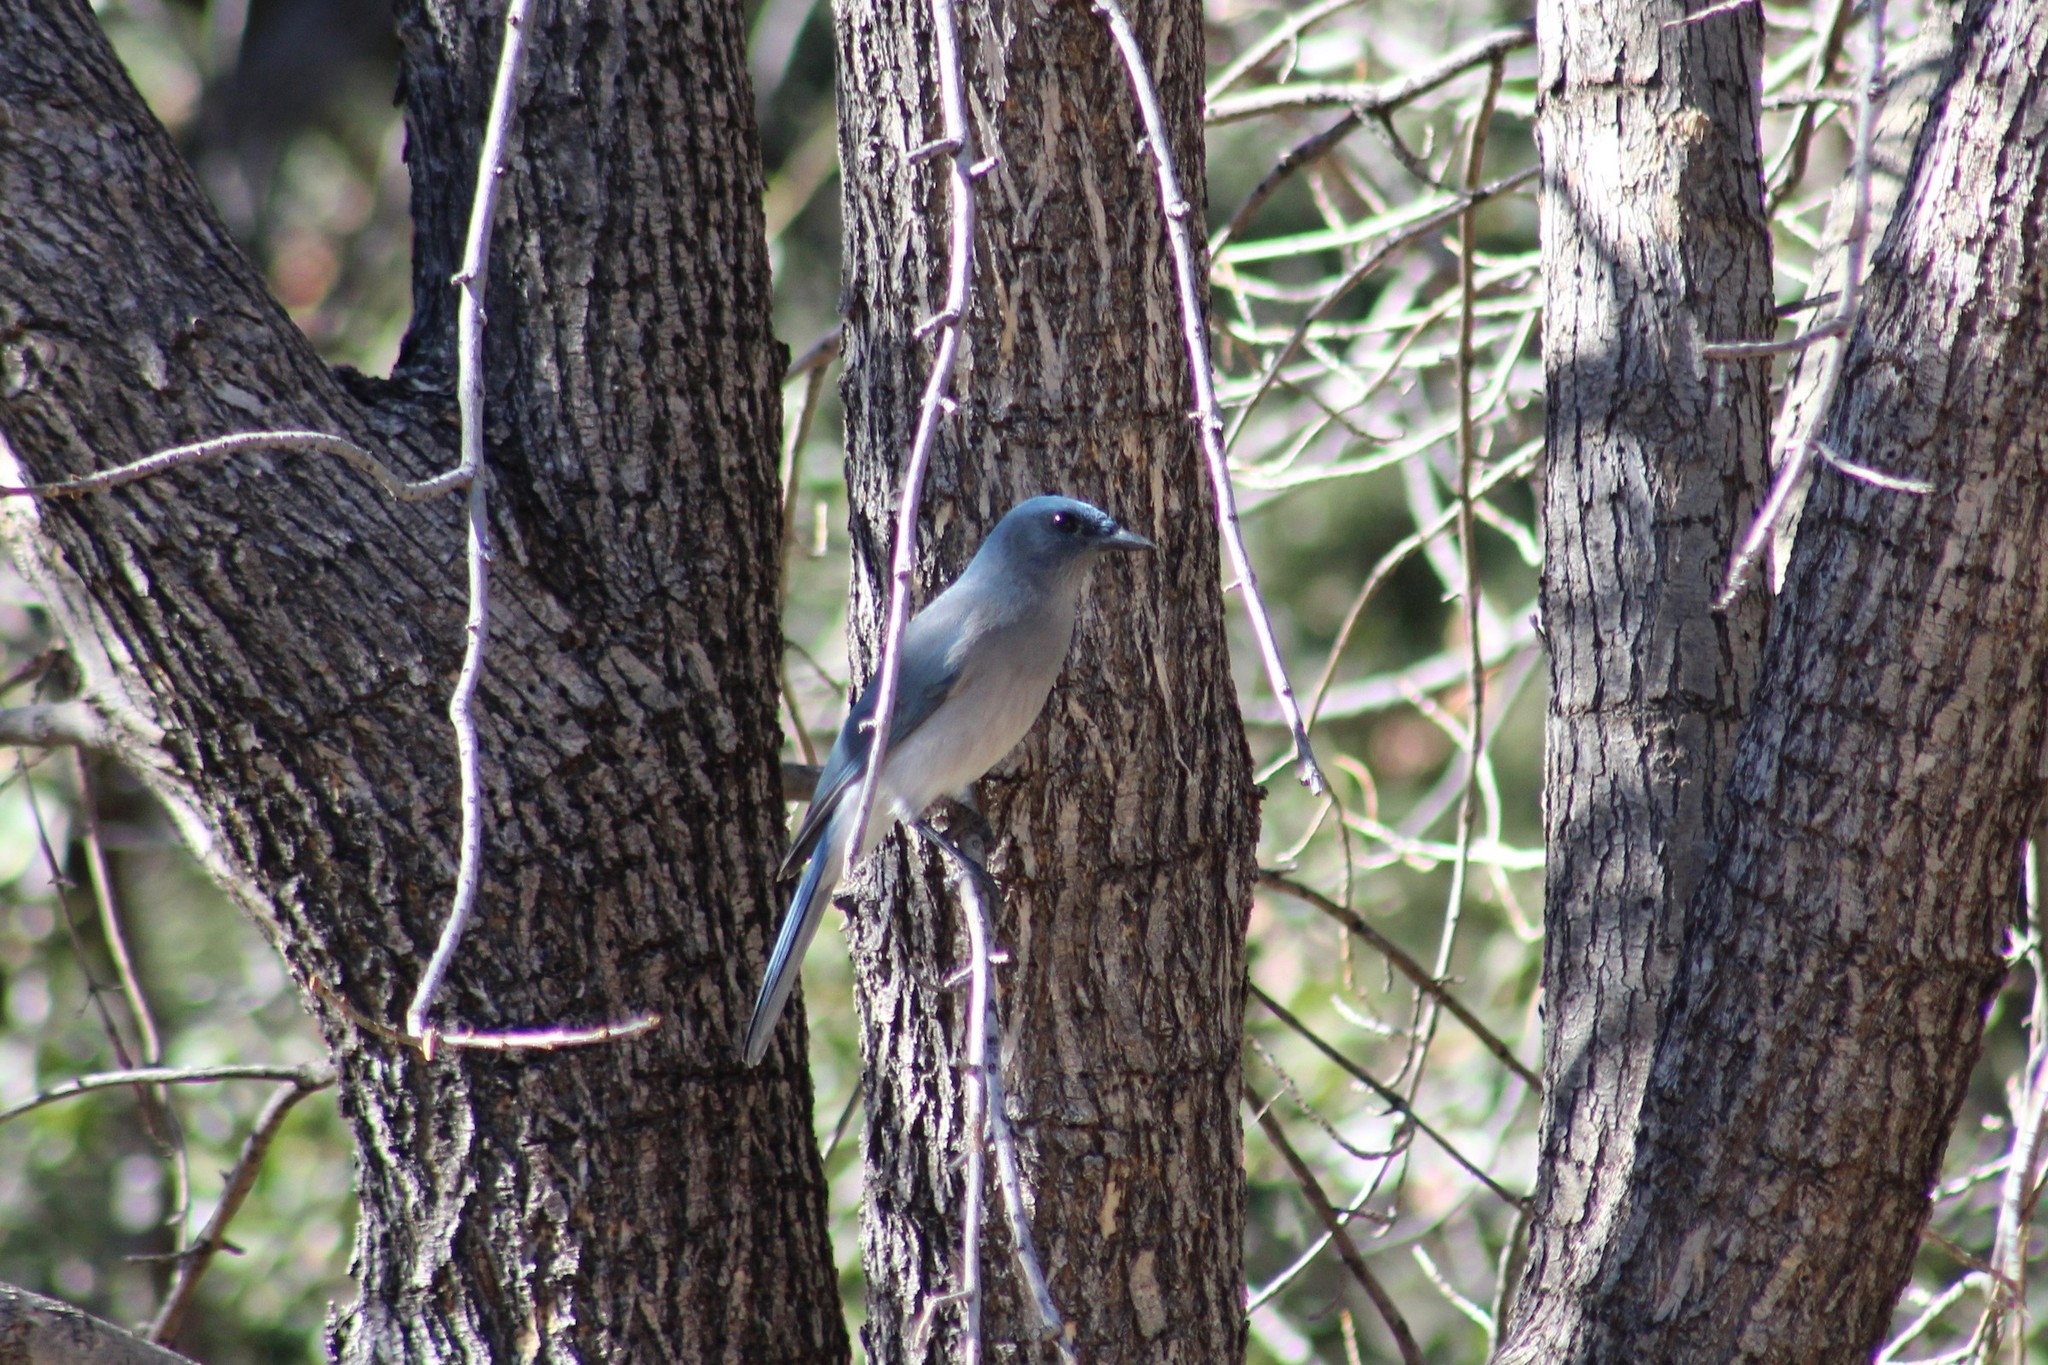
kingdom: Animalia
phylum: Chordata
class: Aves
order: Passeriformes
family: Corvidae
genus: Aphelocoma
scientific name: Aphelocoma wollweberi
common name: Mexican jay
